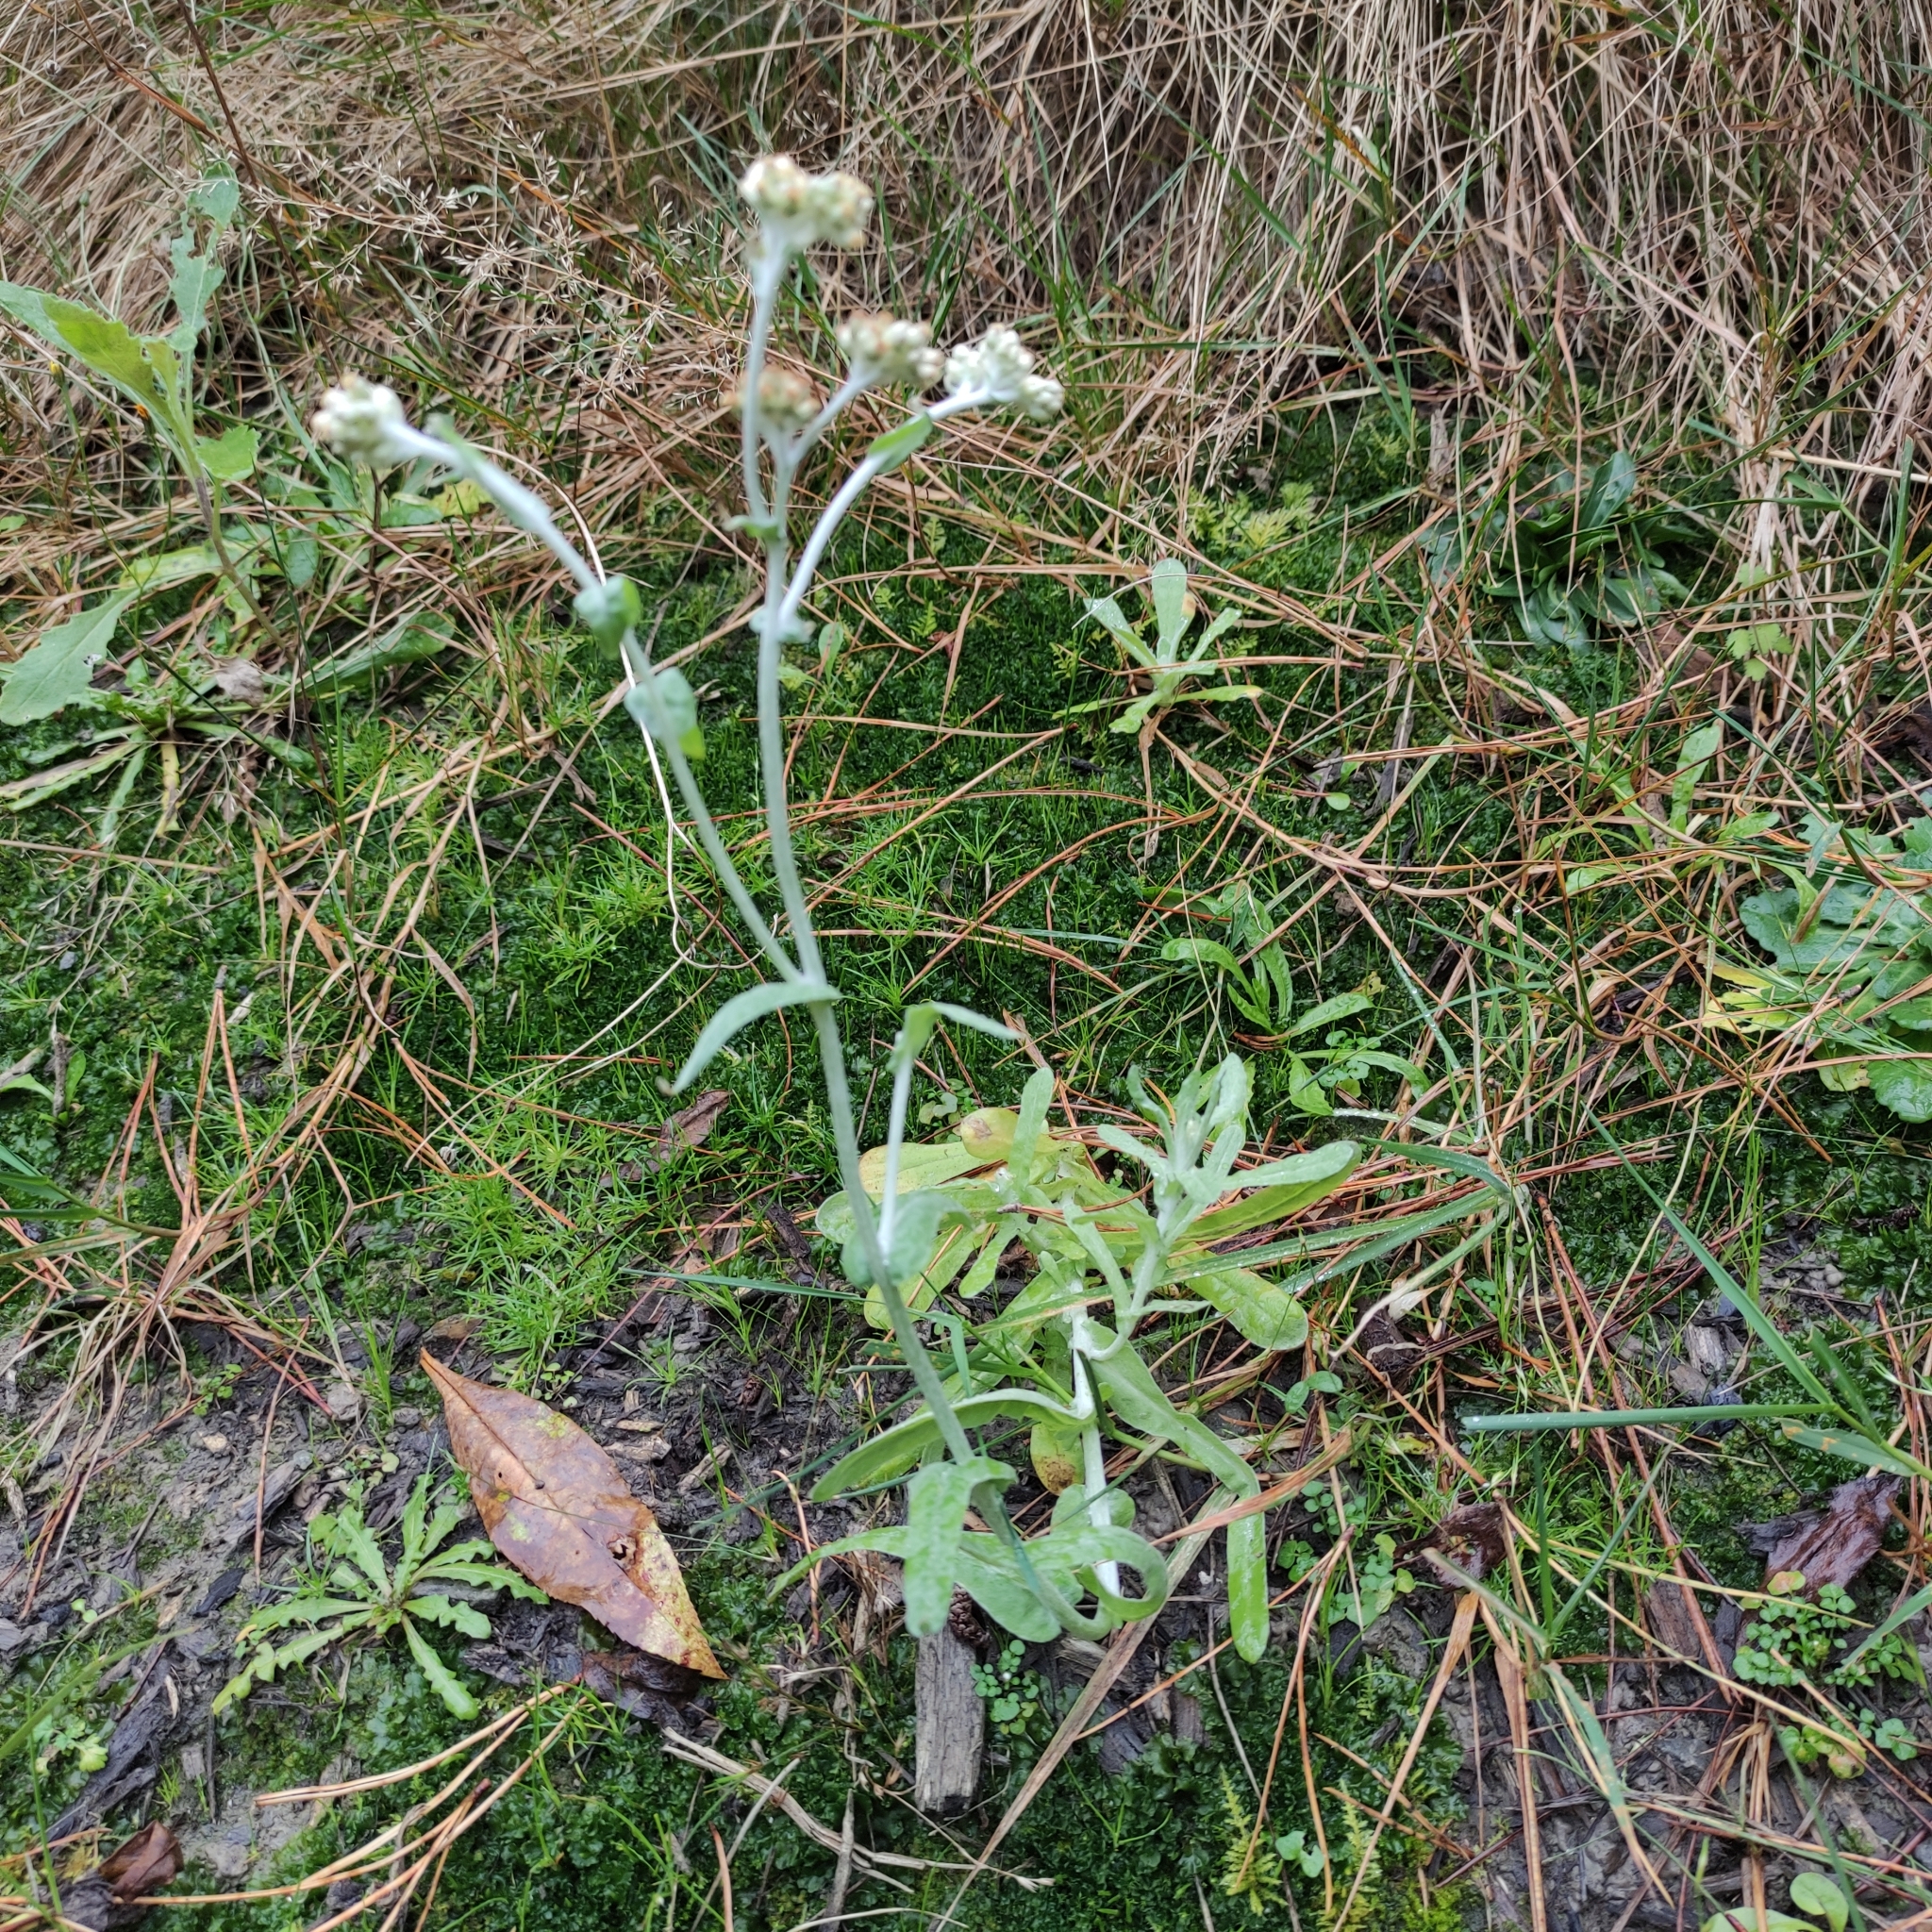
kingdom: Plantae
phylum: Tracheophyta
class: Magnoliopsida
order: Asterales
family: Asteraceae
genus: Helichrysum
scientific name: Helichrysum luteoalbum
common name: Daisy
